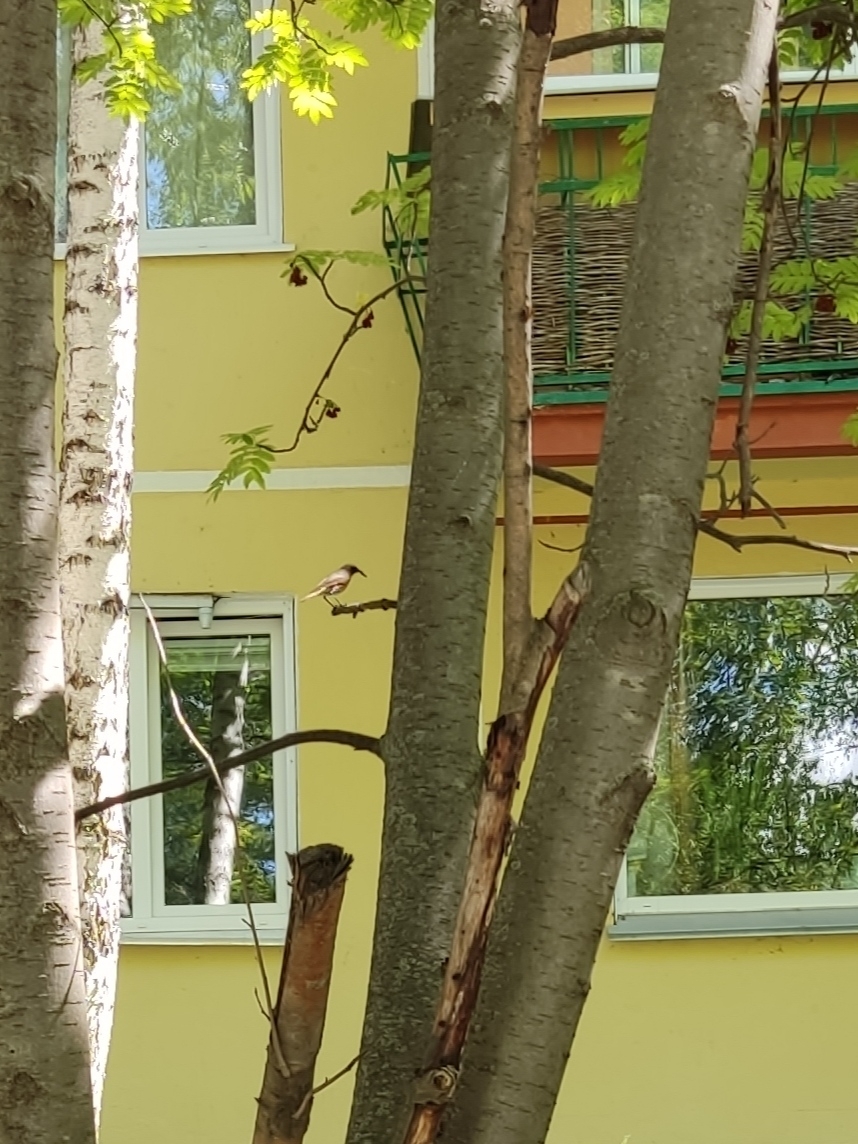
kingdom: Animalia
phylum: Chordata
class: Aves
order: Passeriformes
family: Muscicapidae
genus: Phoenicurus
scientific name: Phoenicurus phoenicurus
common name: Common redstart
